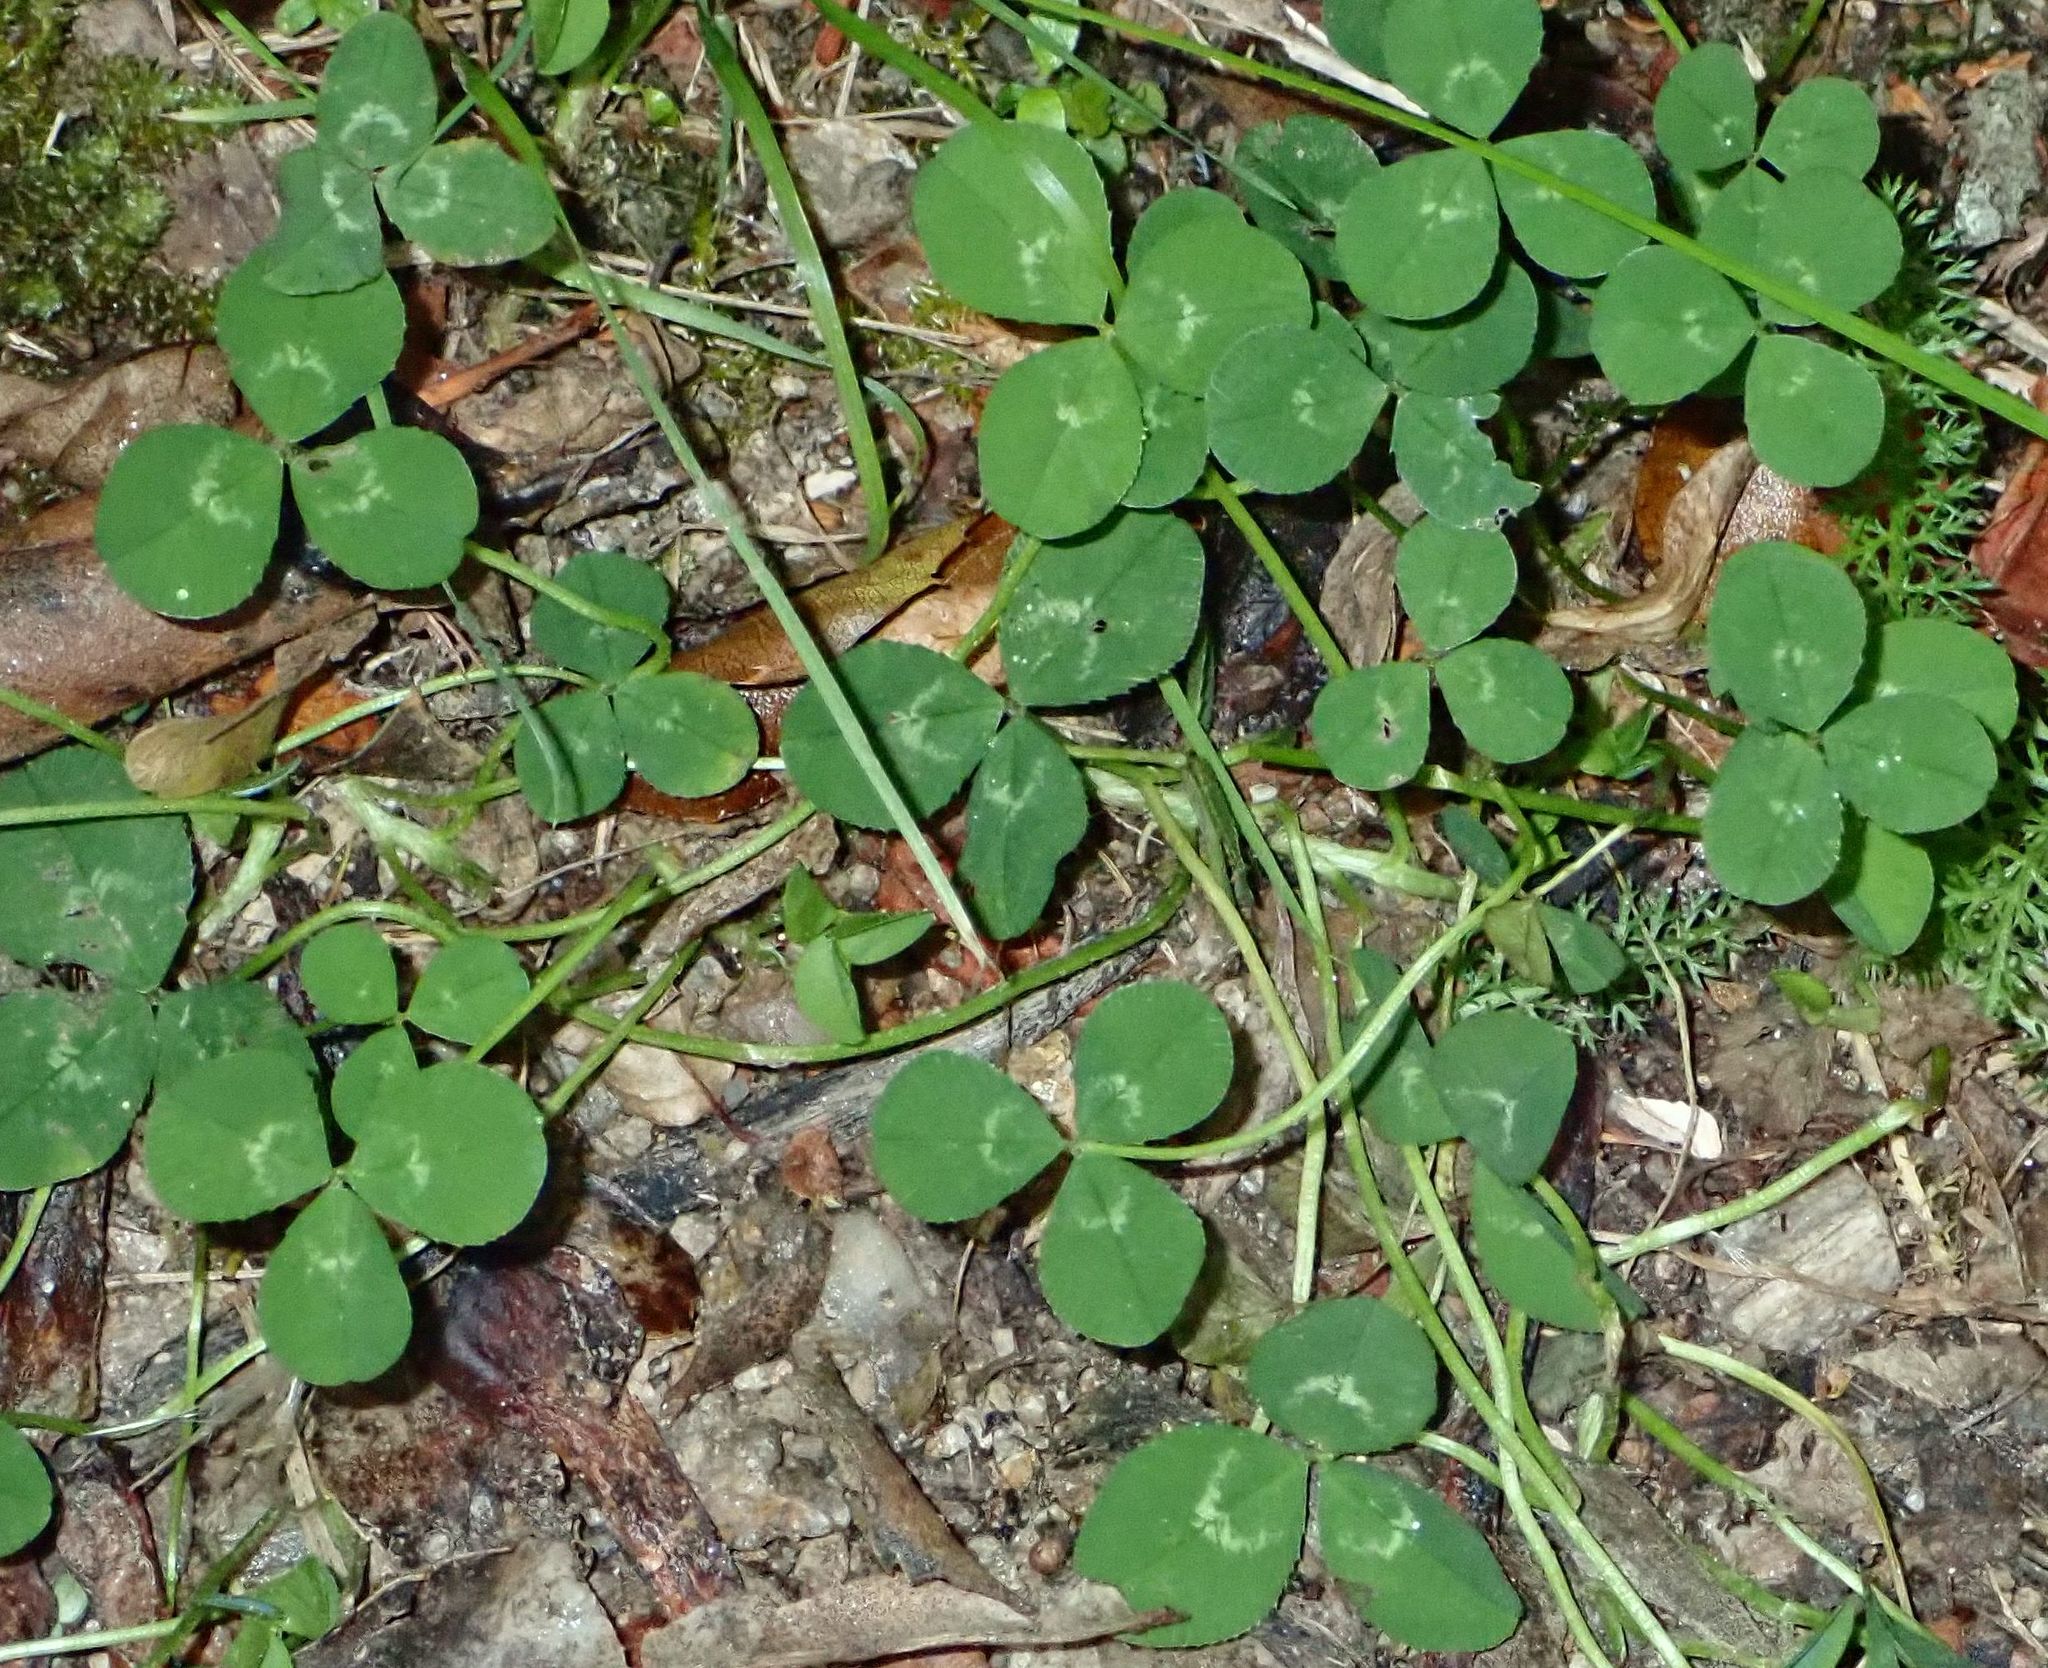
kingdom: Plantae
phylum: Tracheophyta
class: Magnoliopsida
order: Fabales
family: Fabaceae
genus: Trifolium
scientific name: Trifolium repens
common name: White clover
